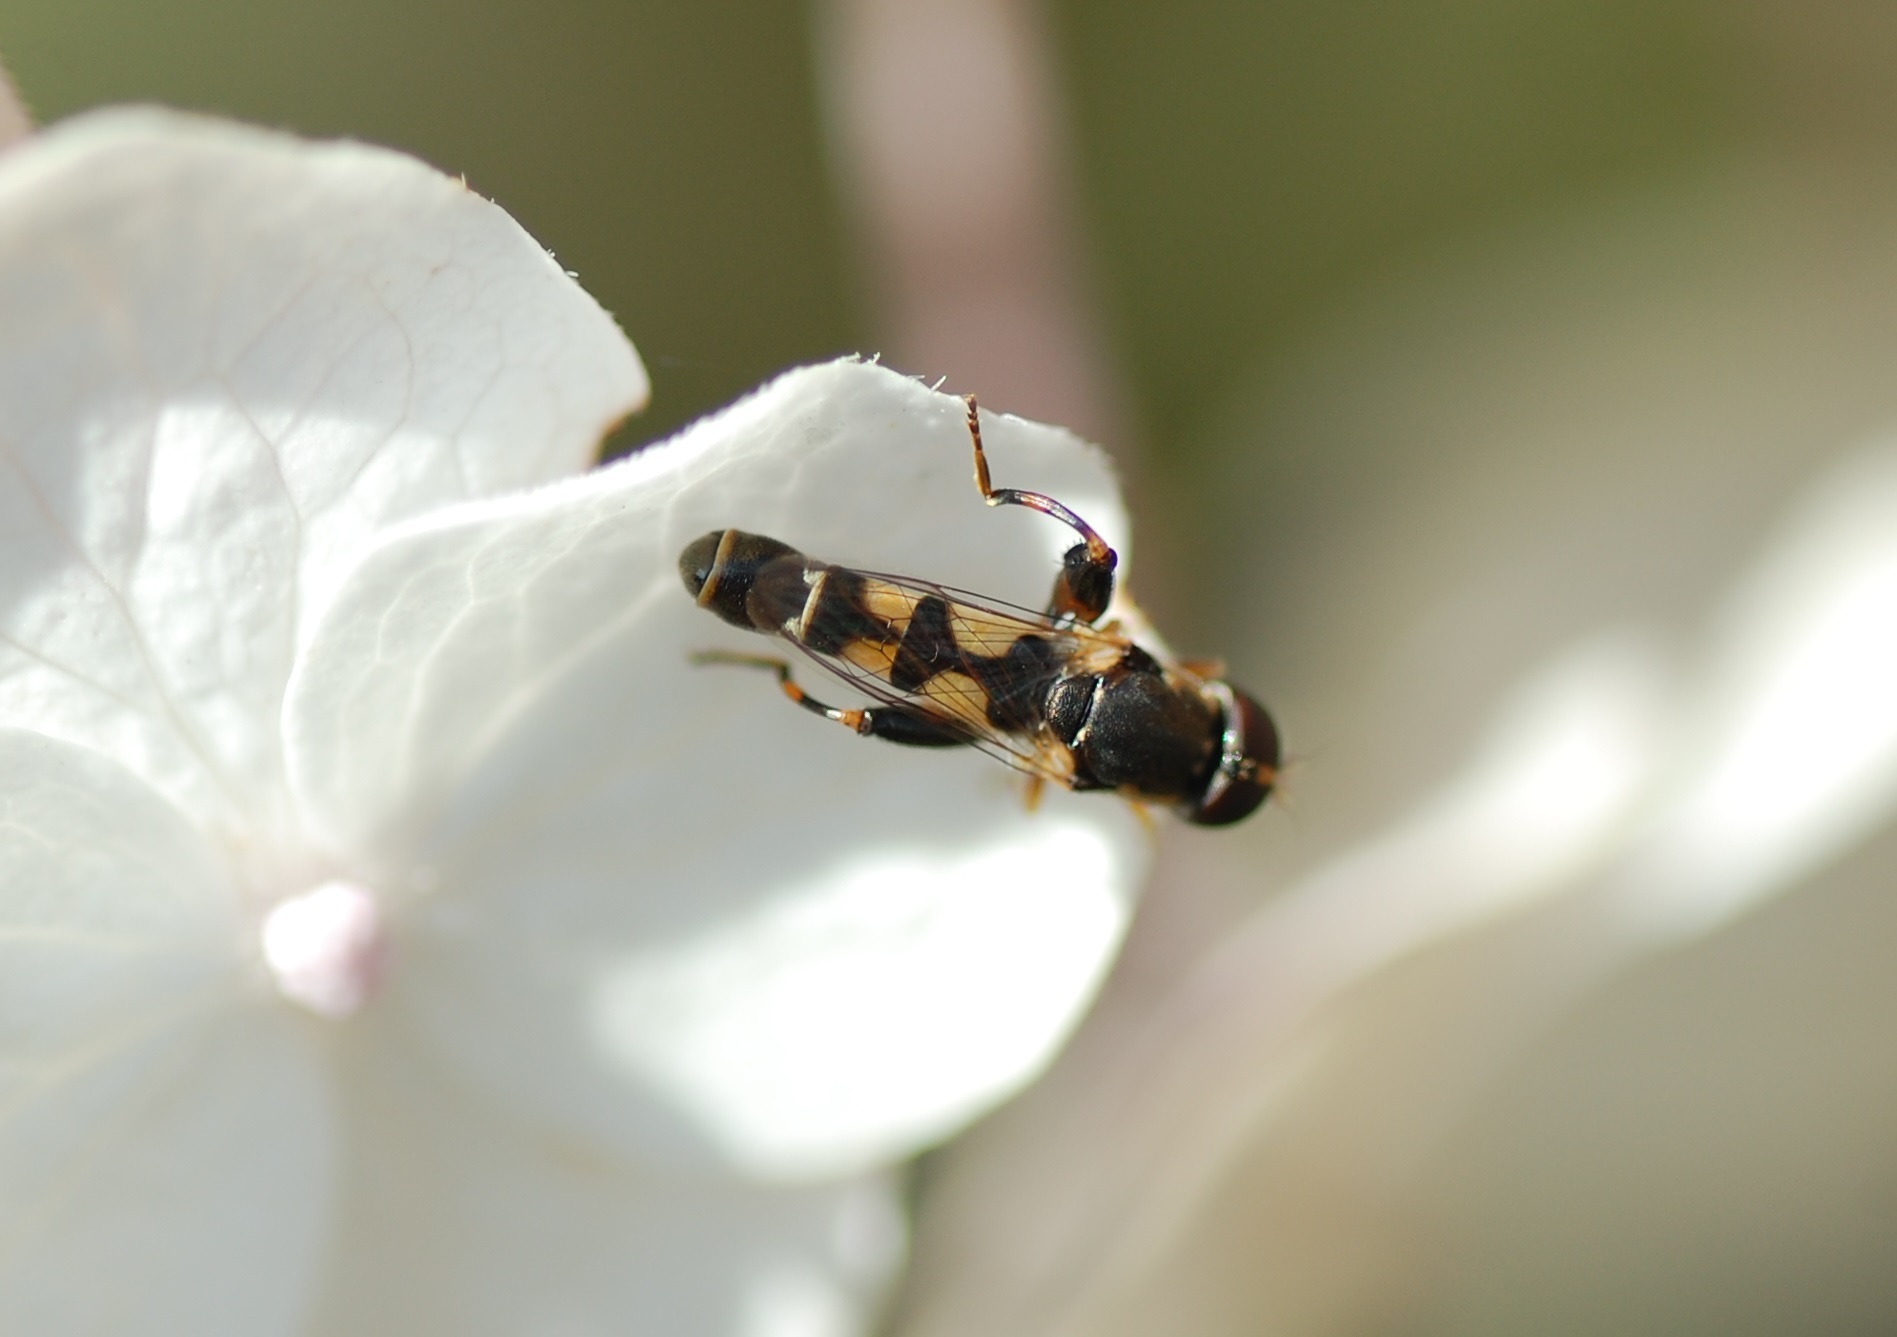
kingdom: Animalia
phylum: Arthropoda
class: Insecta
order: Diptera
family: Syrphidae
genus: Syritta
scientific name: Syritta pipiens
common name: Hover fly
